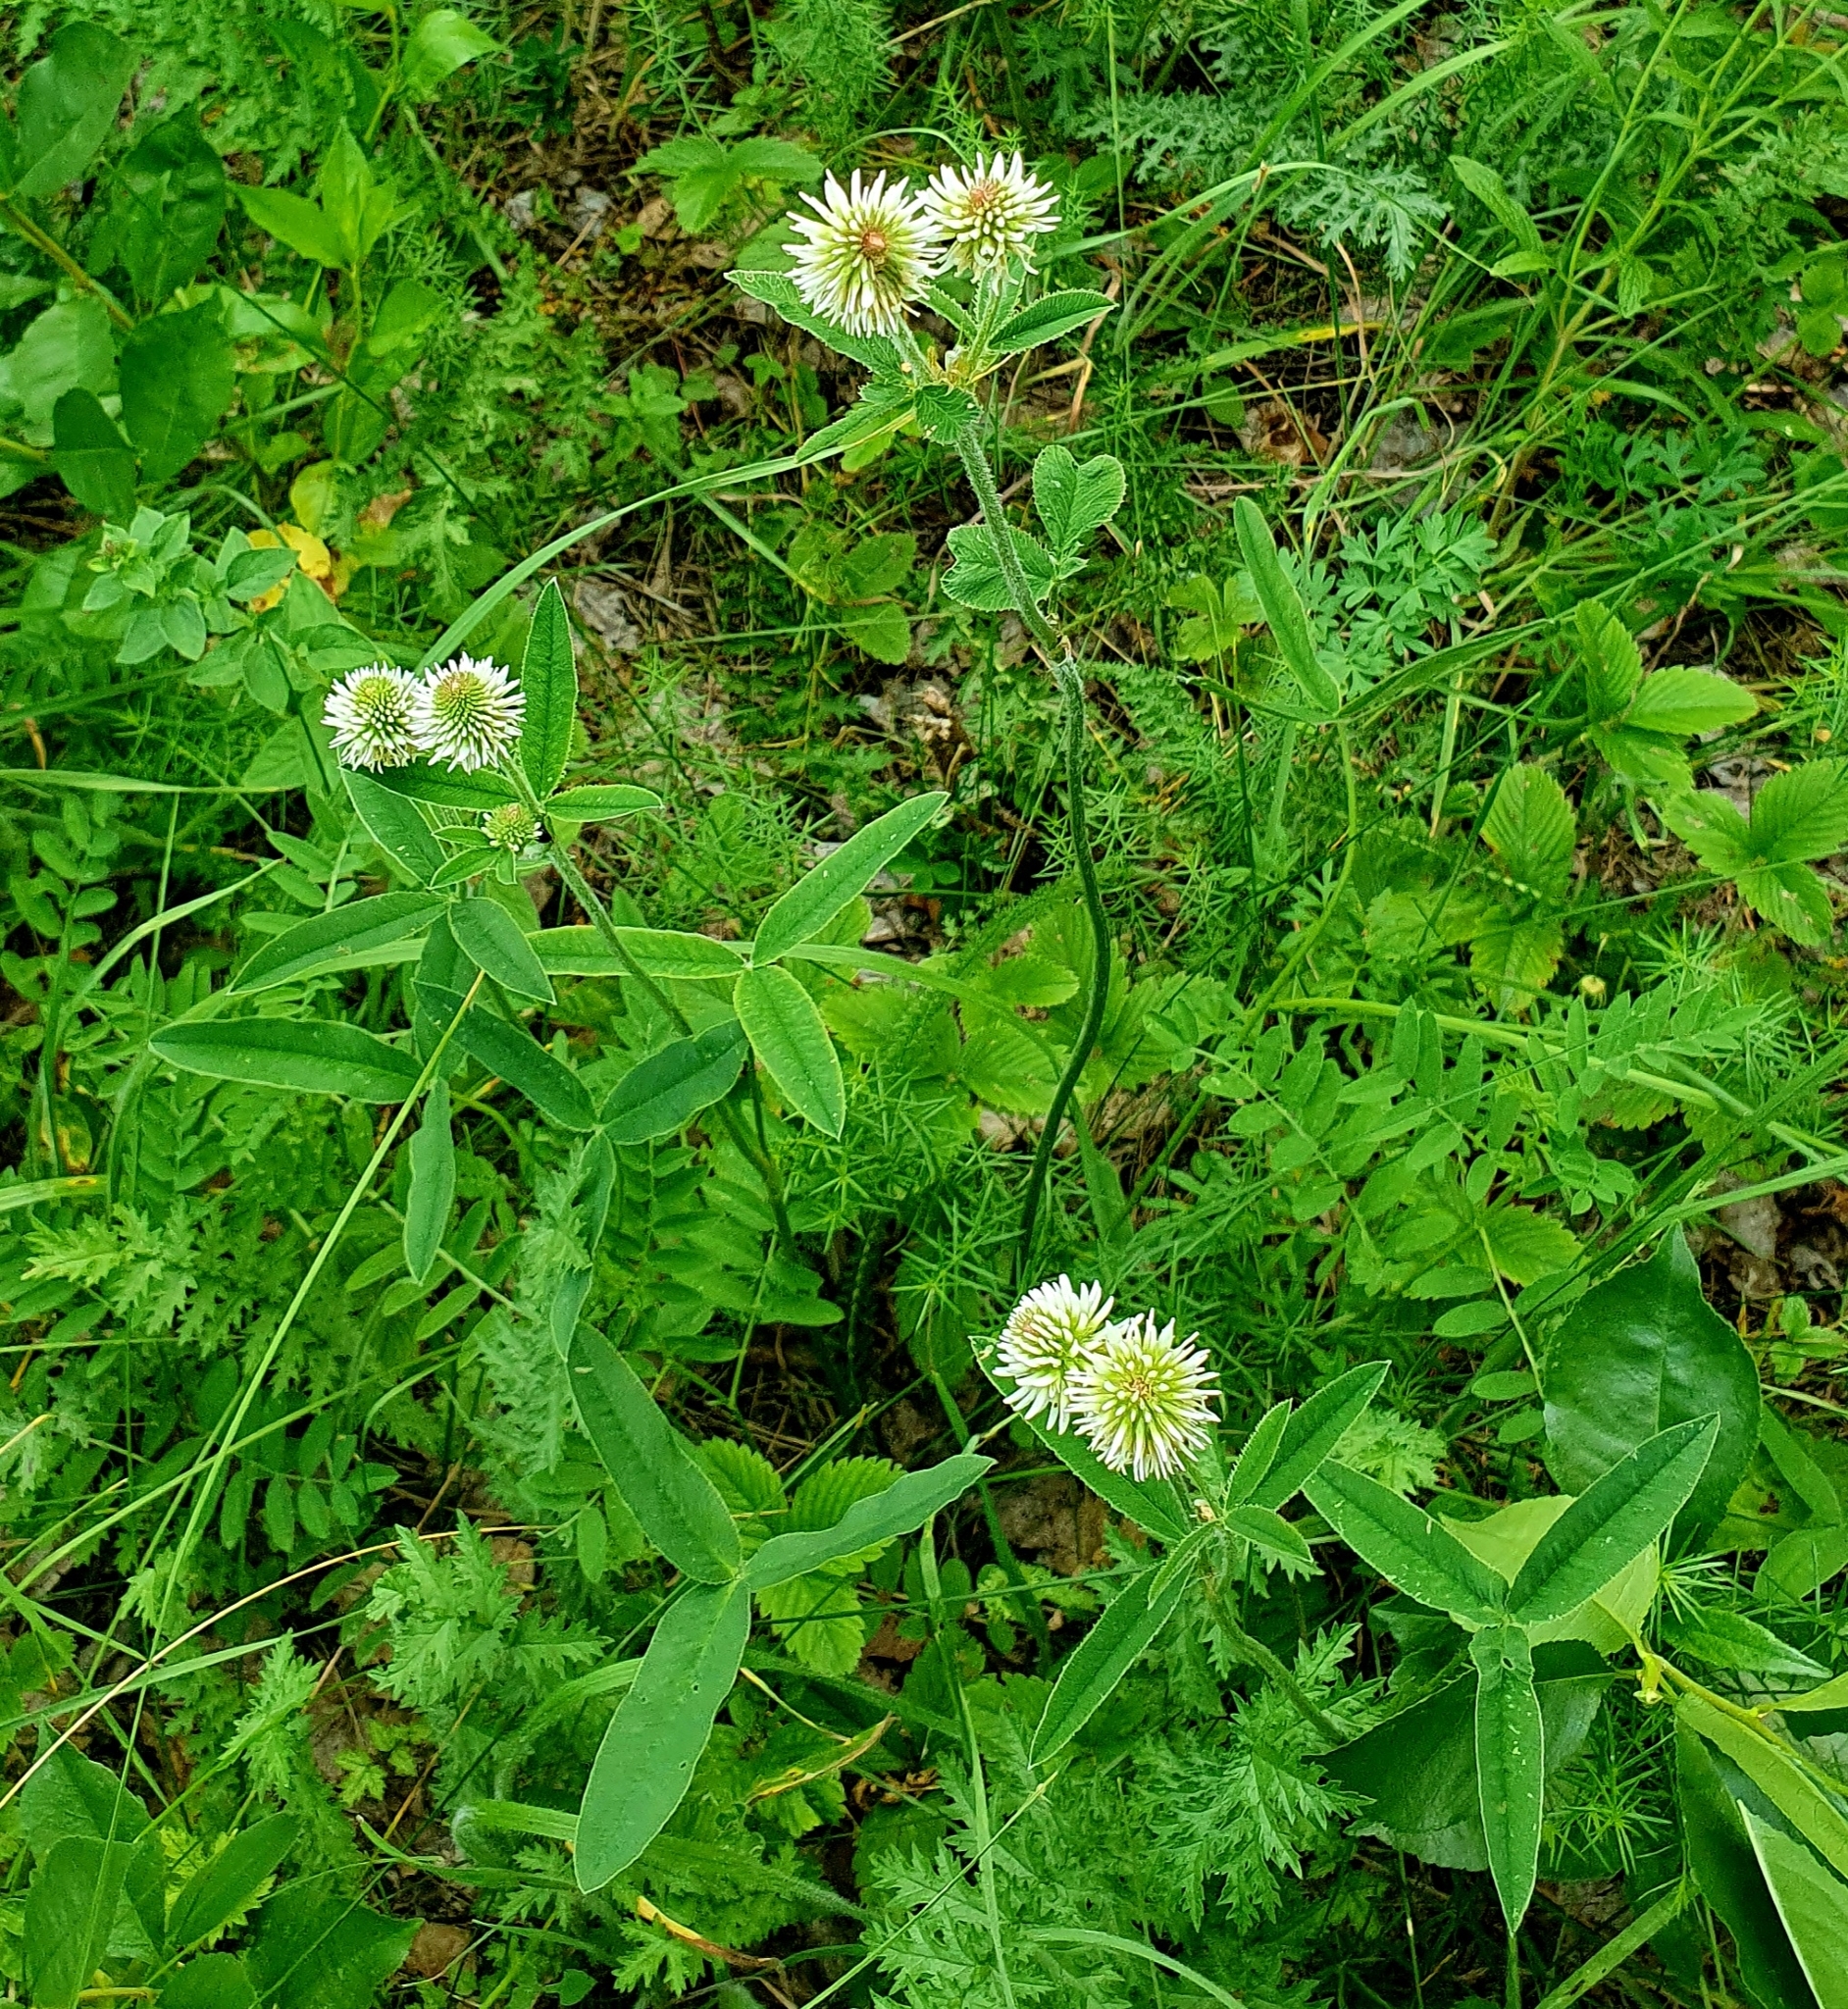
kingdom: Plantae
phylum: Tracheophyta
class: Magnoliopsida
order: Fabales
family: Fabaceae
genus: Trifolium
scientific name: Trifolium montanum
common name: Mountain clover
